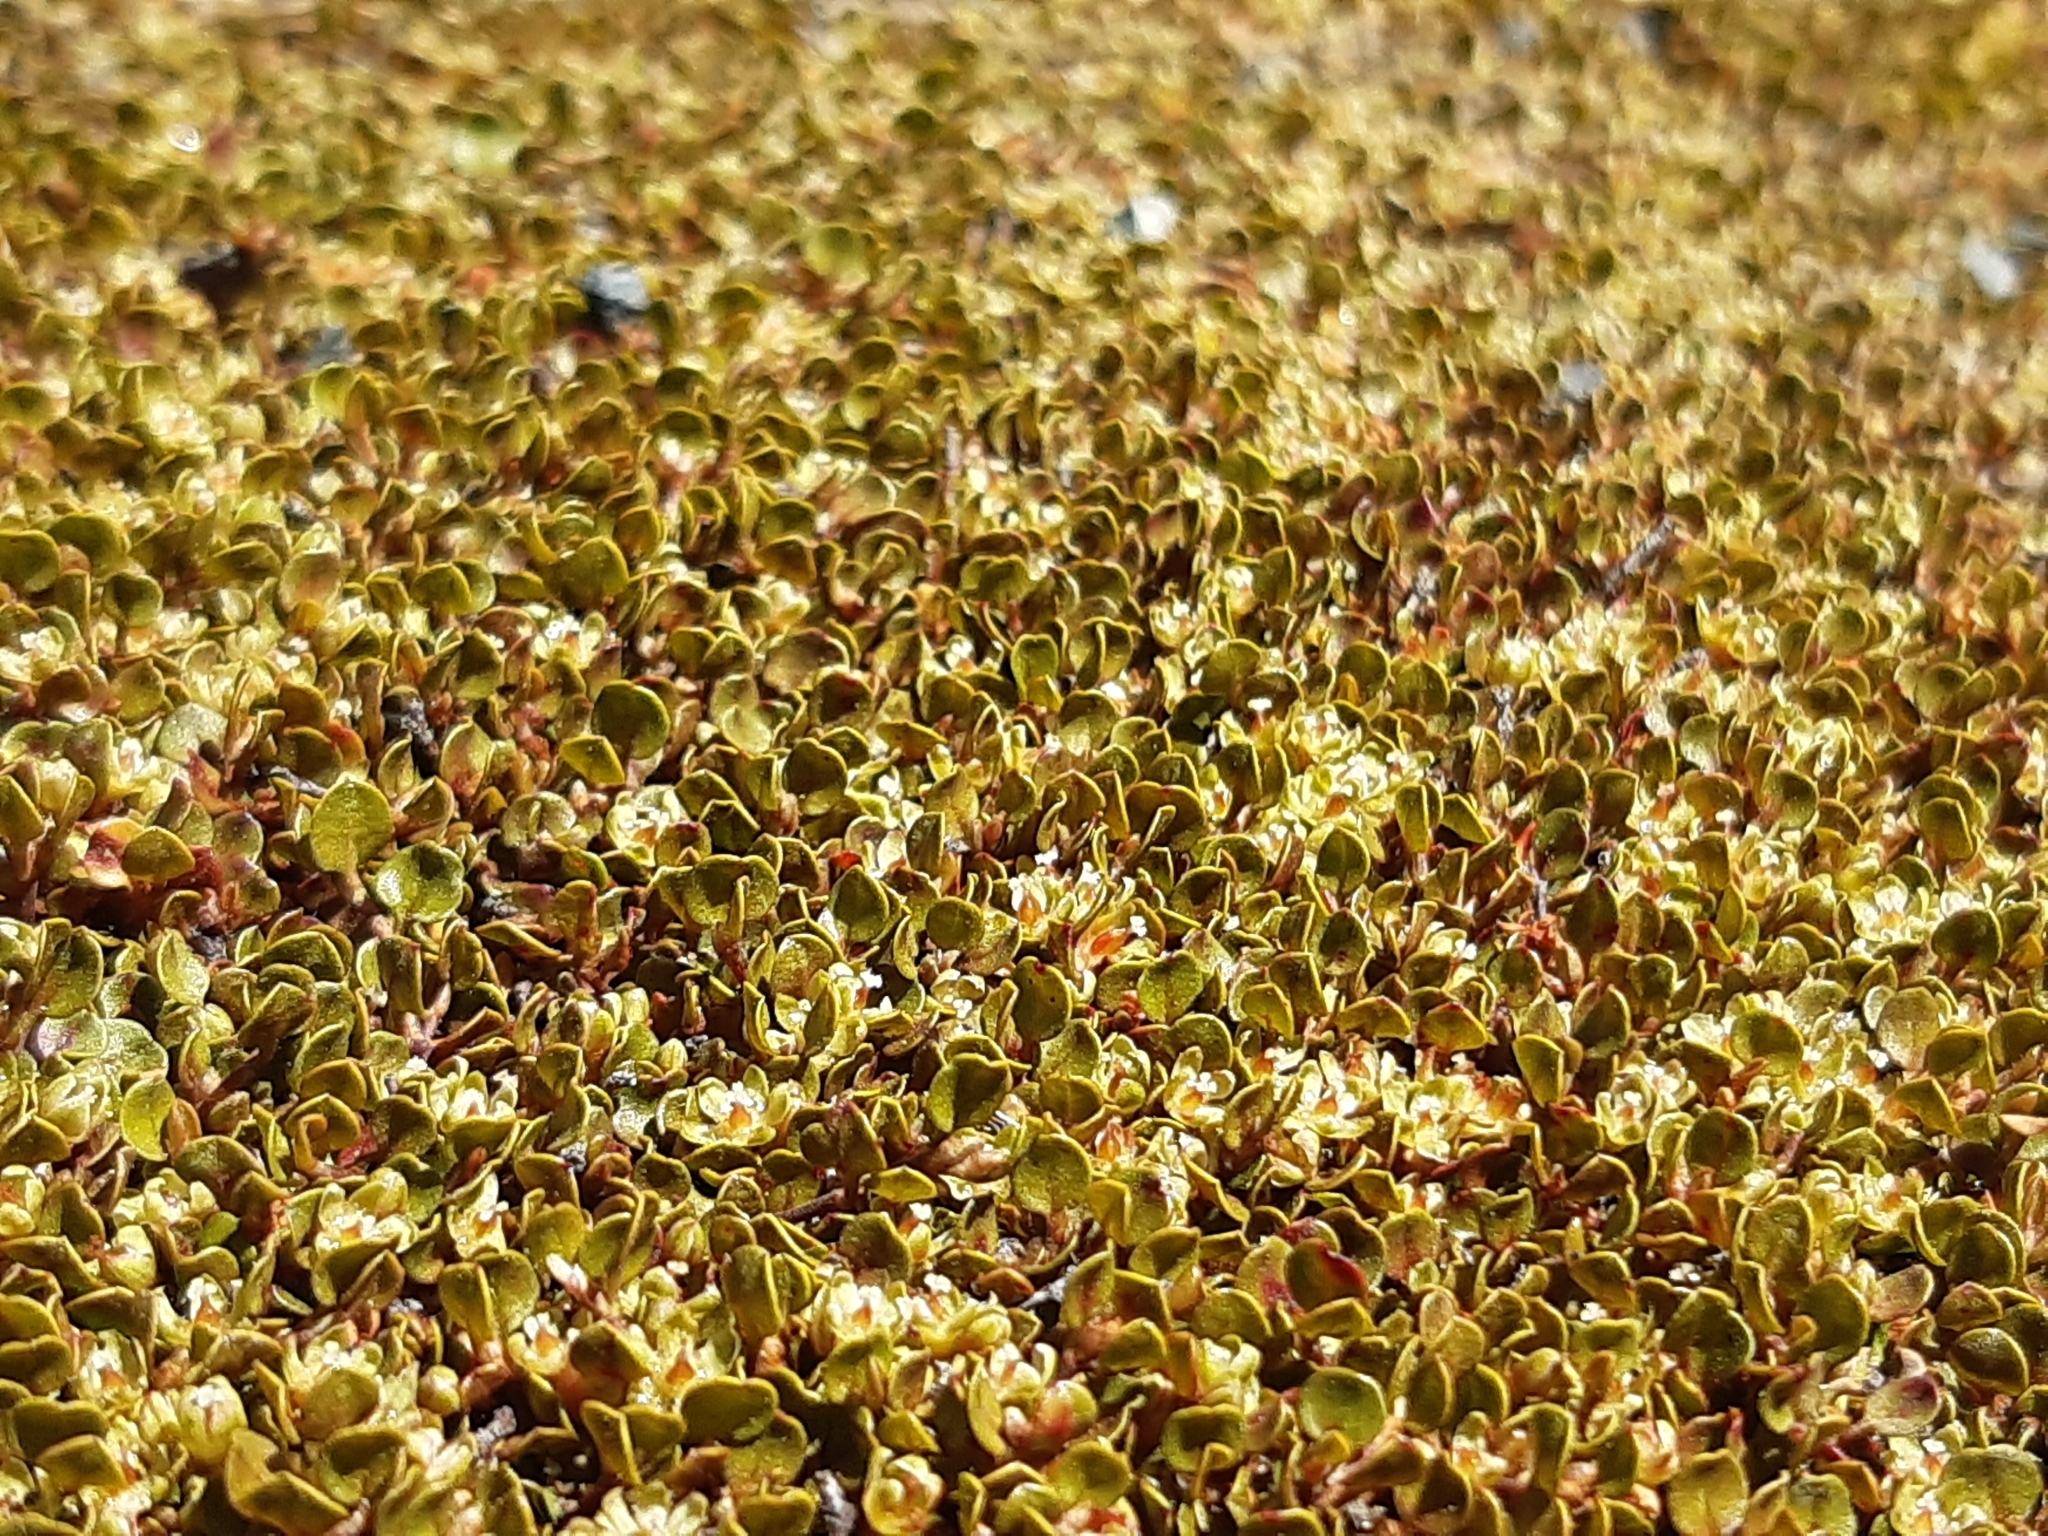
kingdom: Plantae
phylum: Tracheophyta
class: Magnoliopsida
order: Caryophyllales
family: Polygonaceae
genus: Muehlenbeckia
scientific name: Muehlenbeckia axillaris
